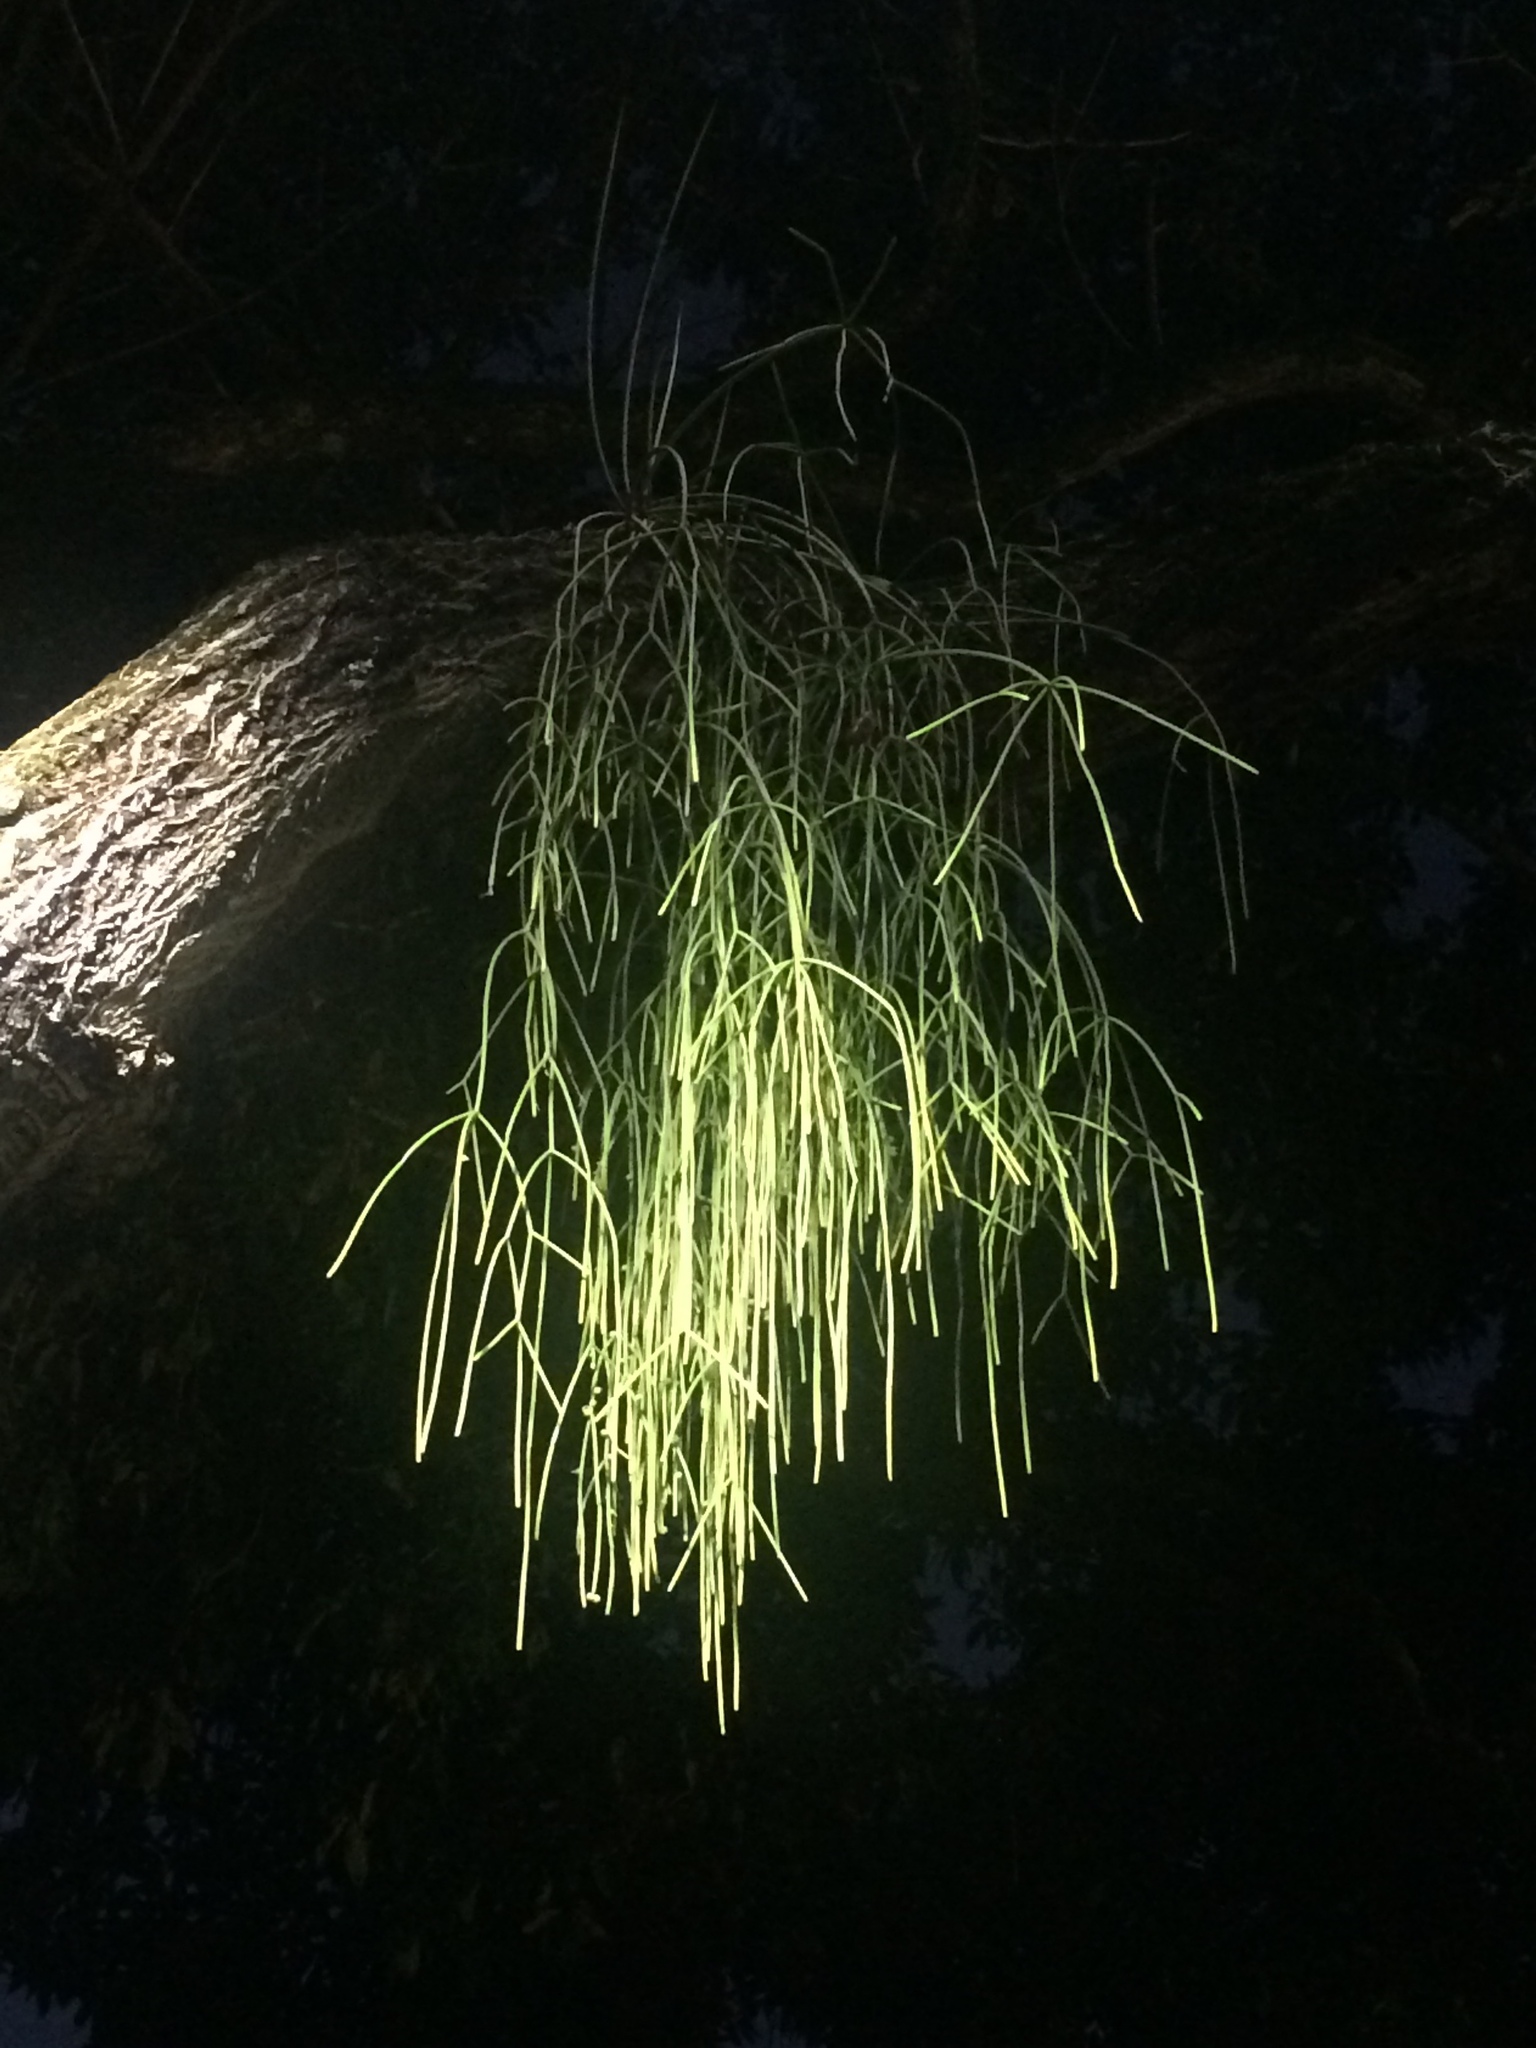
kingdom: Plantae
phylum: Tracheophyta
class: Magnoliopsida
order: Caryophyllales
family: Cactaceae
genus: Rhipsalis
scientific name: Rhipsalis baccifera
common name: Mistletoe cactus
